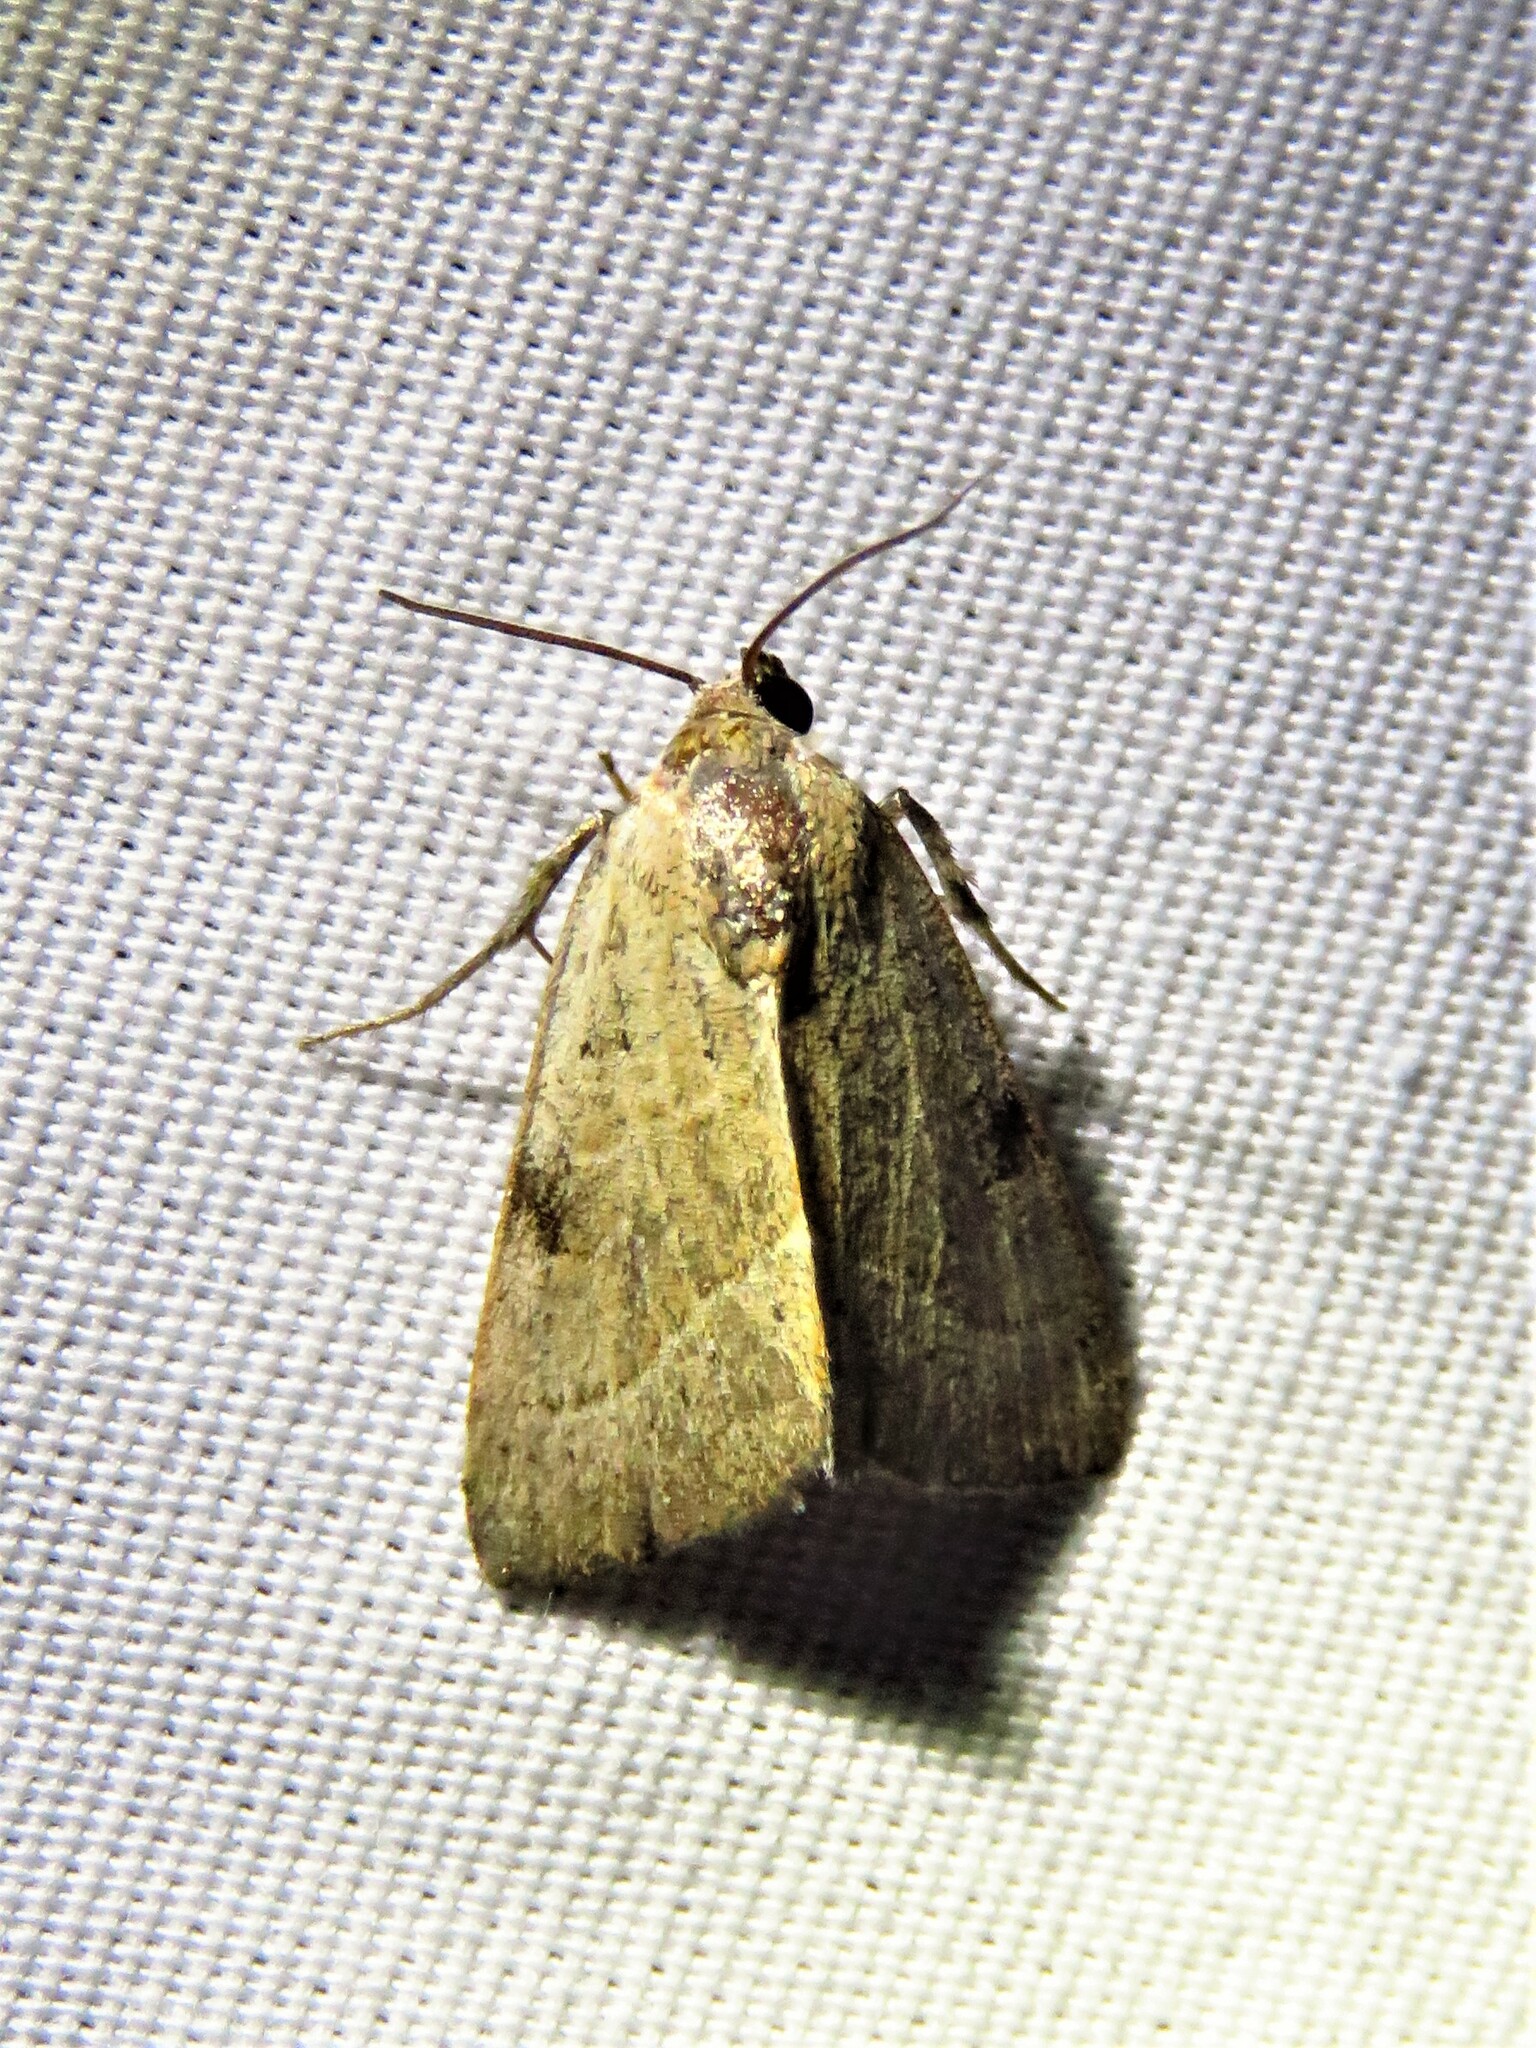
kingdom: Animalia
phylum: Arthropoda
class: Insecta
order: Lepidoptera
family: Noctuidae
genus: Galgula
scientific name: Galgula partita
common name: Wedgeling
